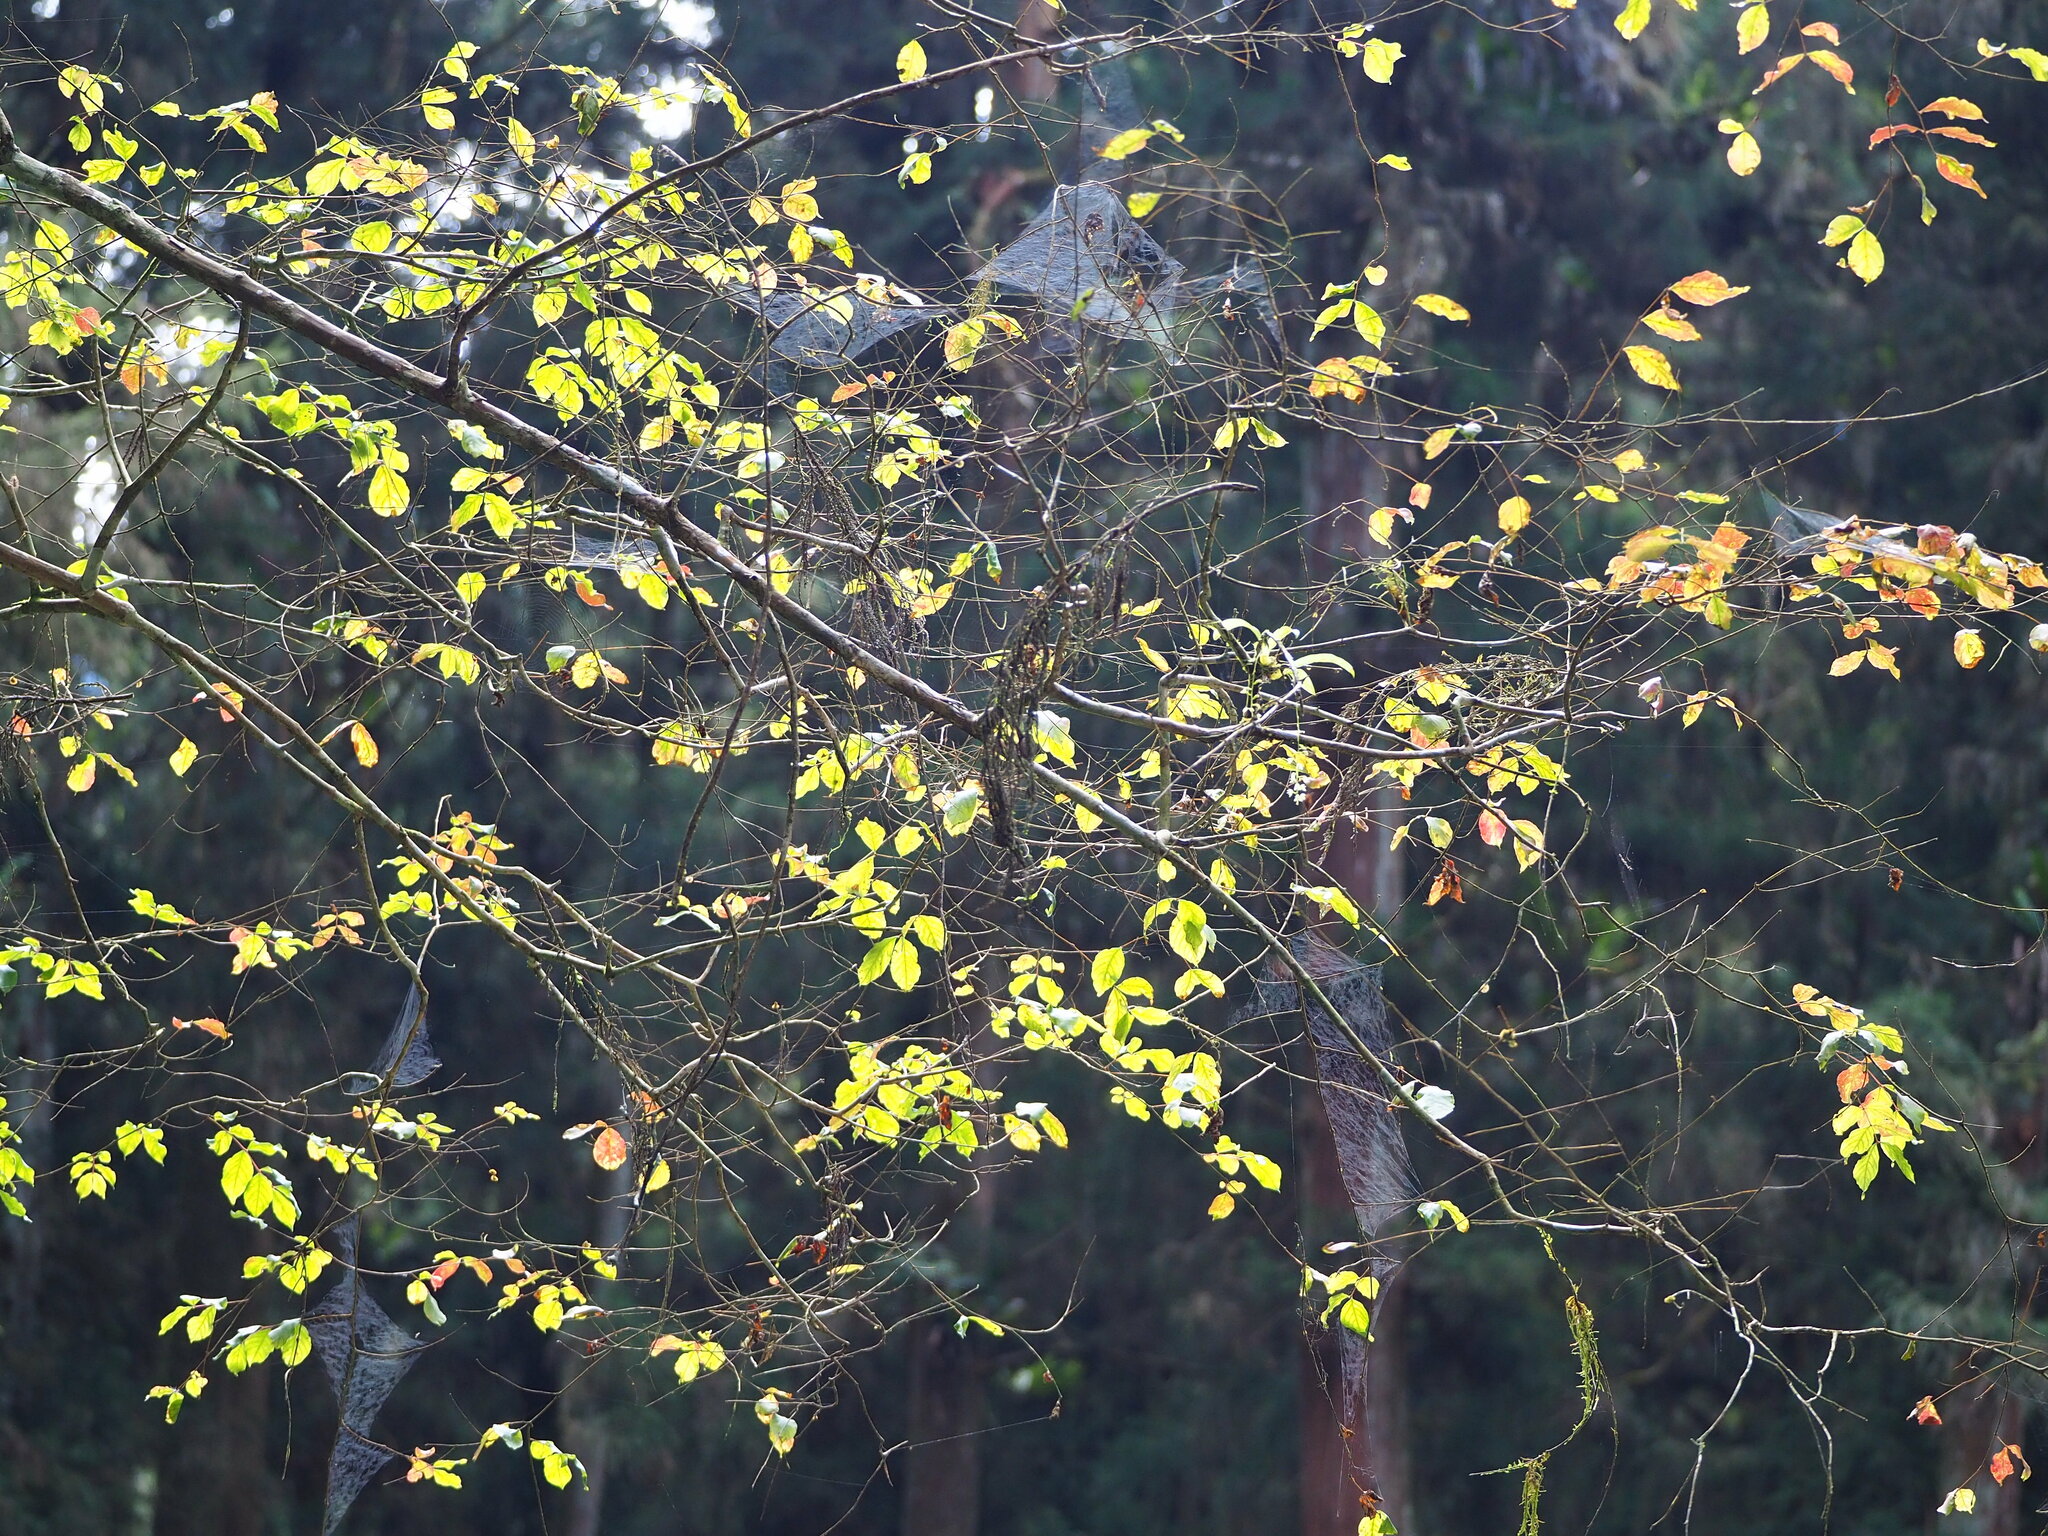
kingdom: Plantae
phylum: Tracheophyta
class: Magnoliopsida
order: Myrtales
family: Lythraceae
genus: Lagerstroemia
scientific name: Lagerstroemia subcostata
